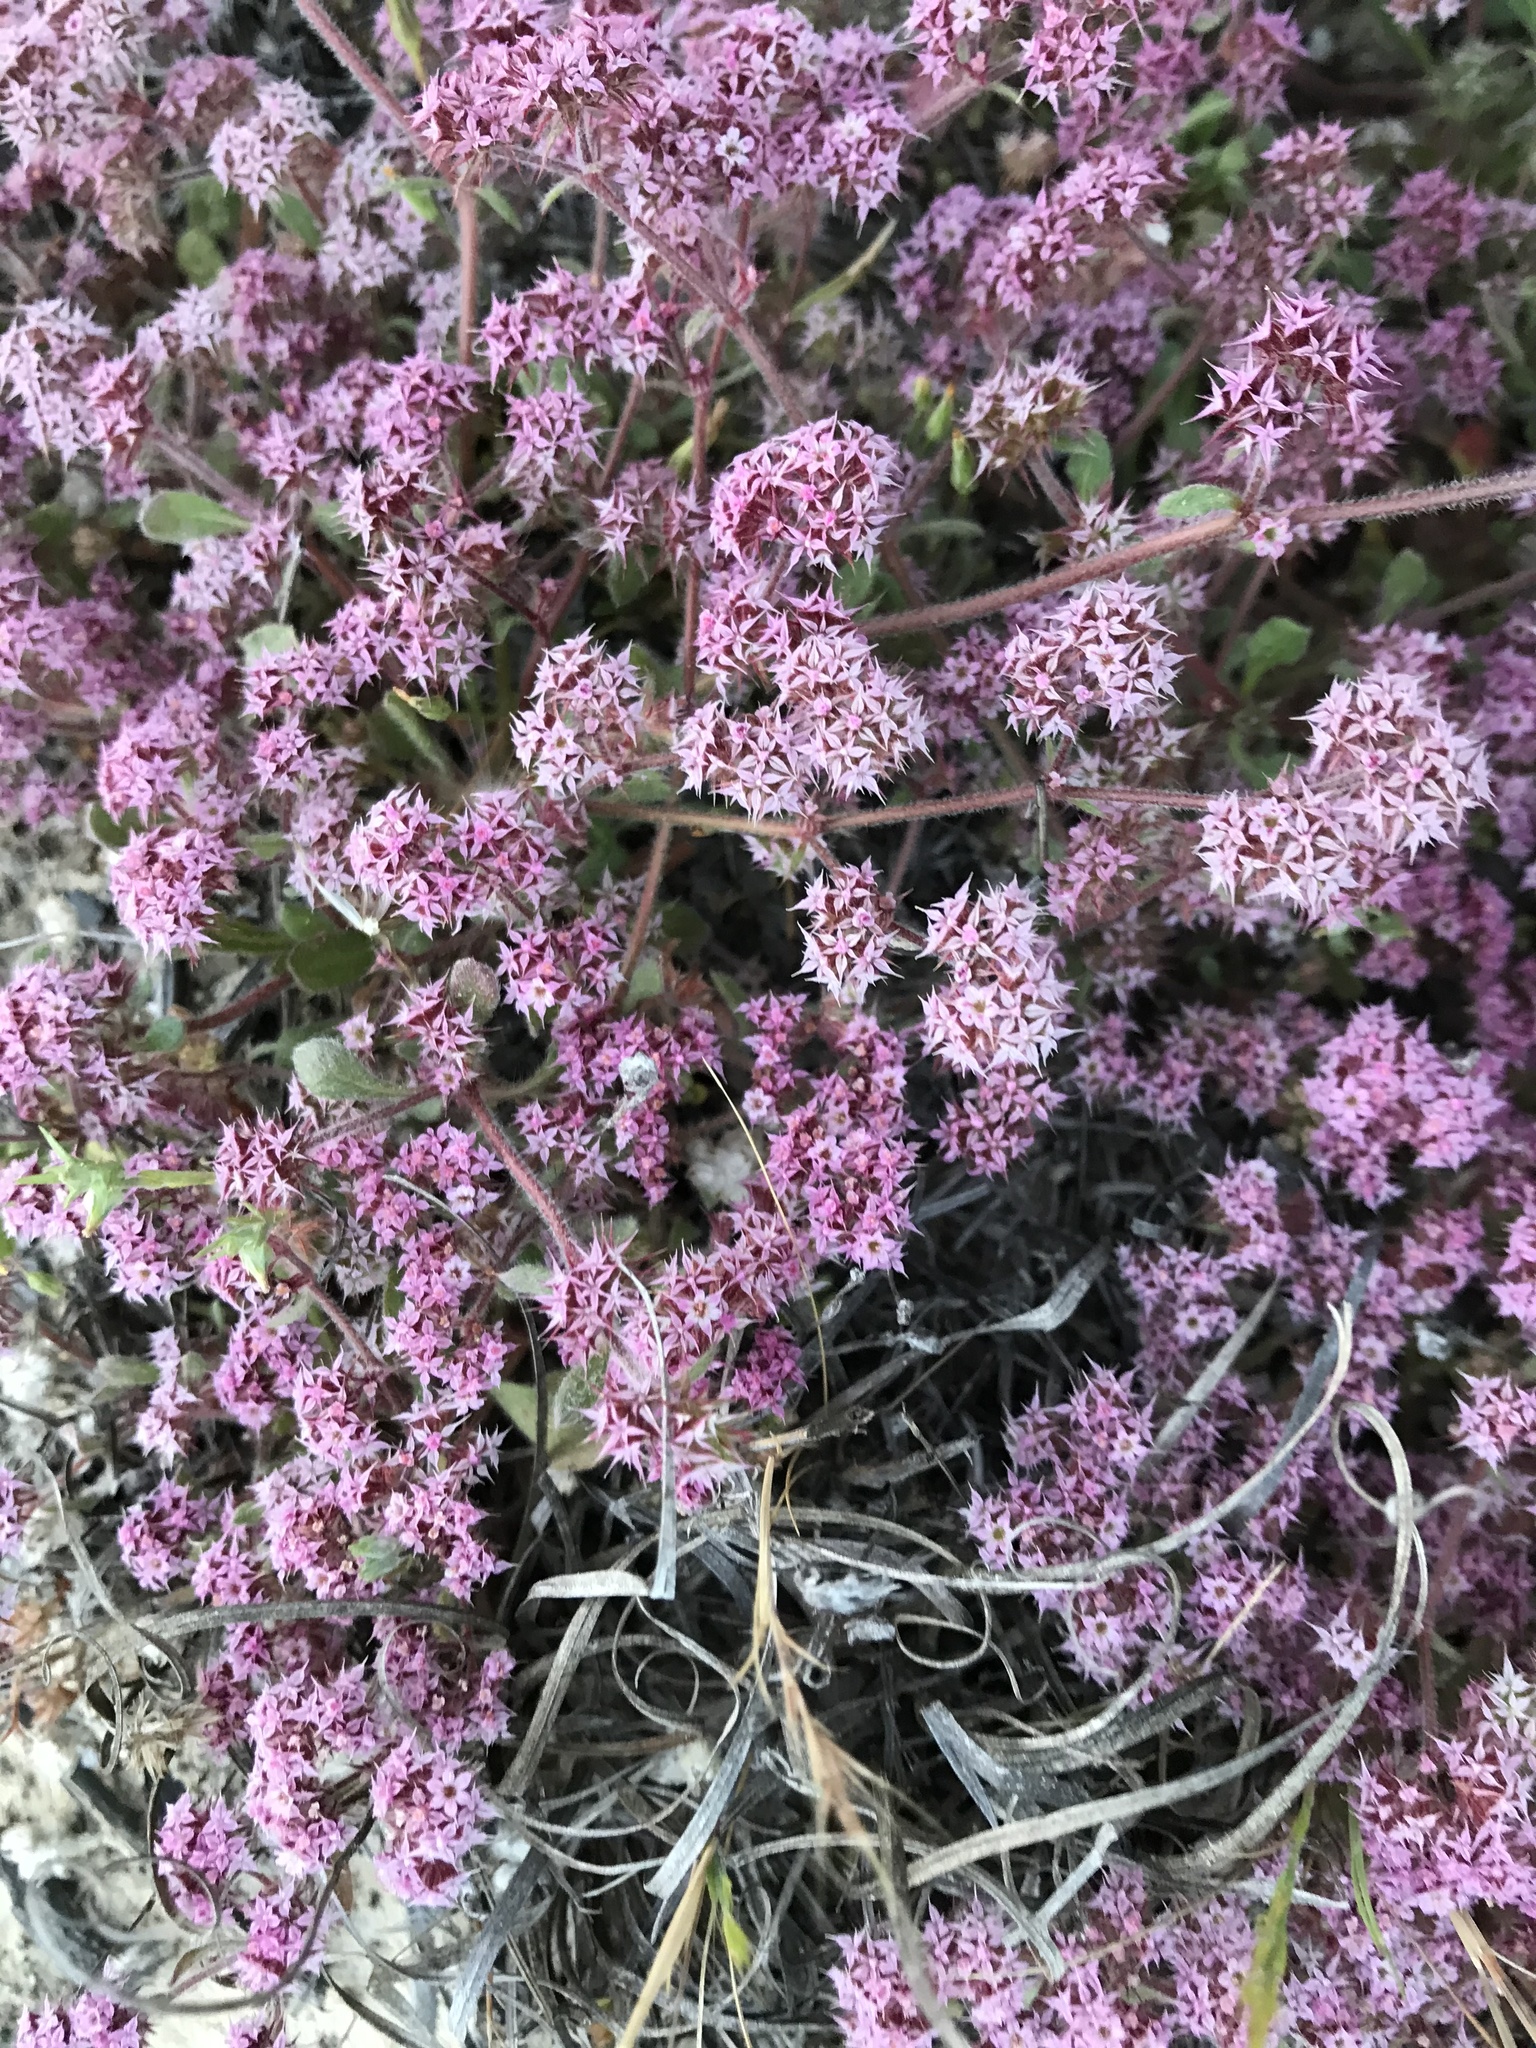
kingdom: Plantae
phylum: Tracheophyta
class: Magnoliopsida
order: Caryophyllales
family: Polygonaceae
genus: Chorizanthe
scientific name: Chorizanthe pungens
